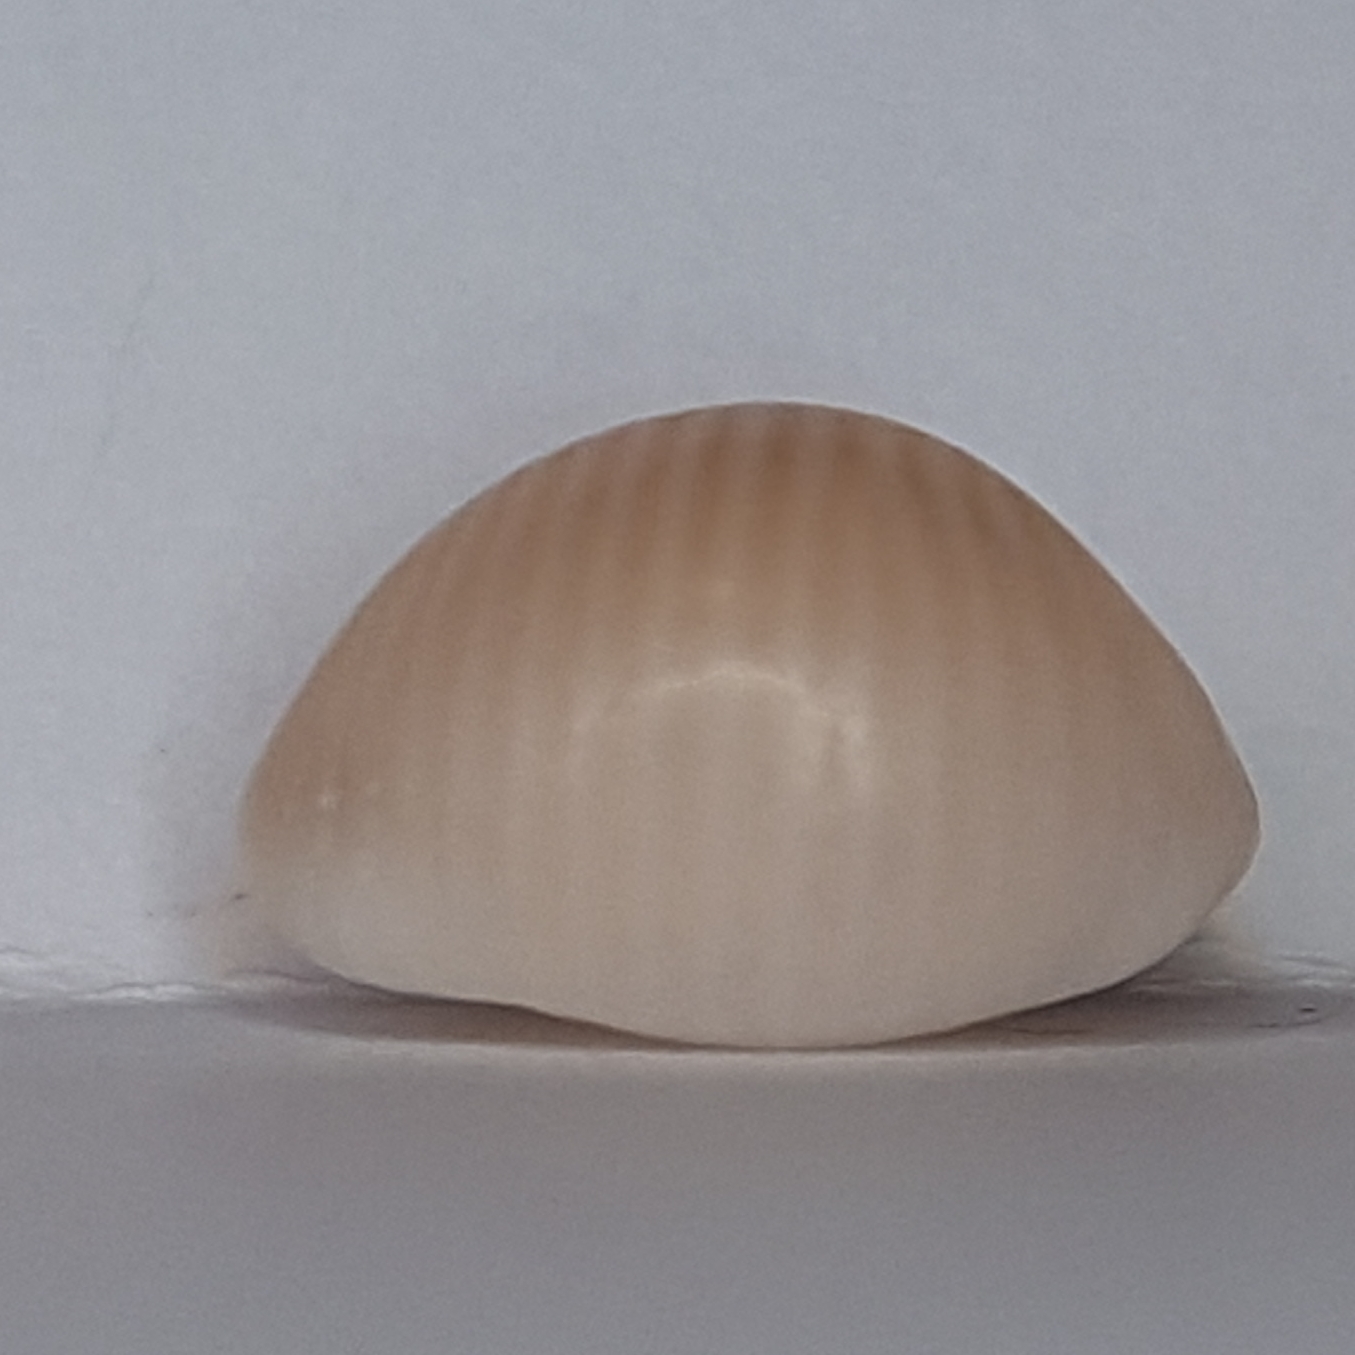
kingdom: Animalia
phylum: Mollusca
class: Gastropoda
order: Littorinimorpha
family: Triviidae
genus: Trivia
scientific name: Trivia arctica
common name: Arctic cowrie
